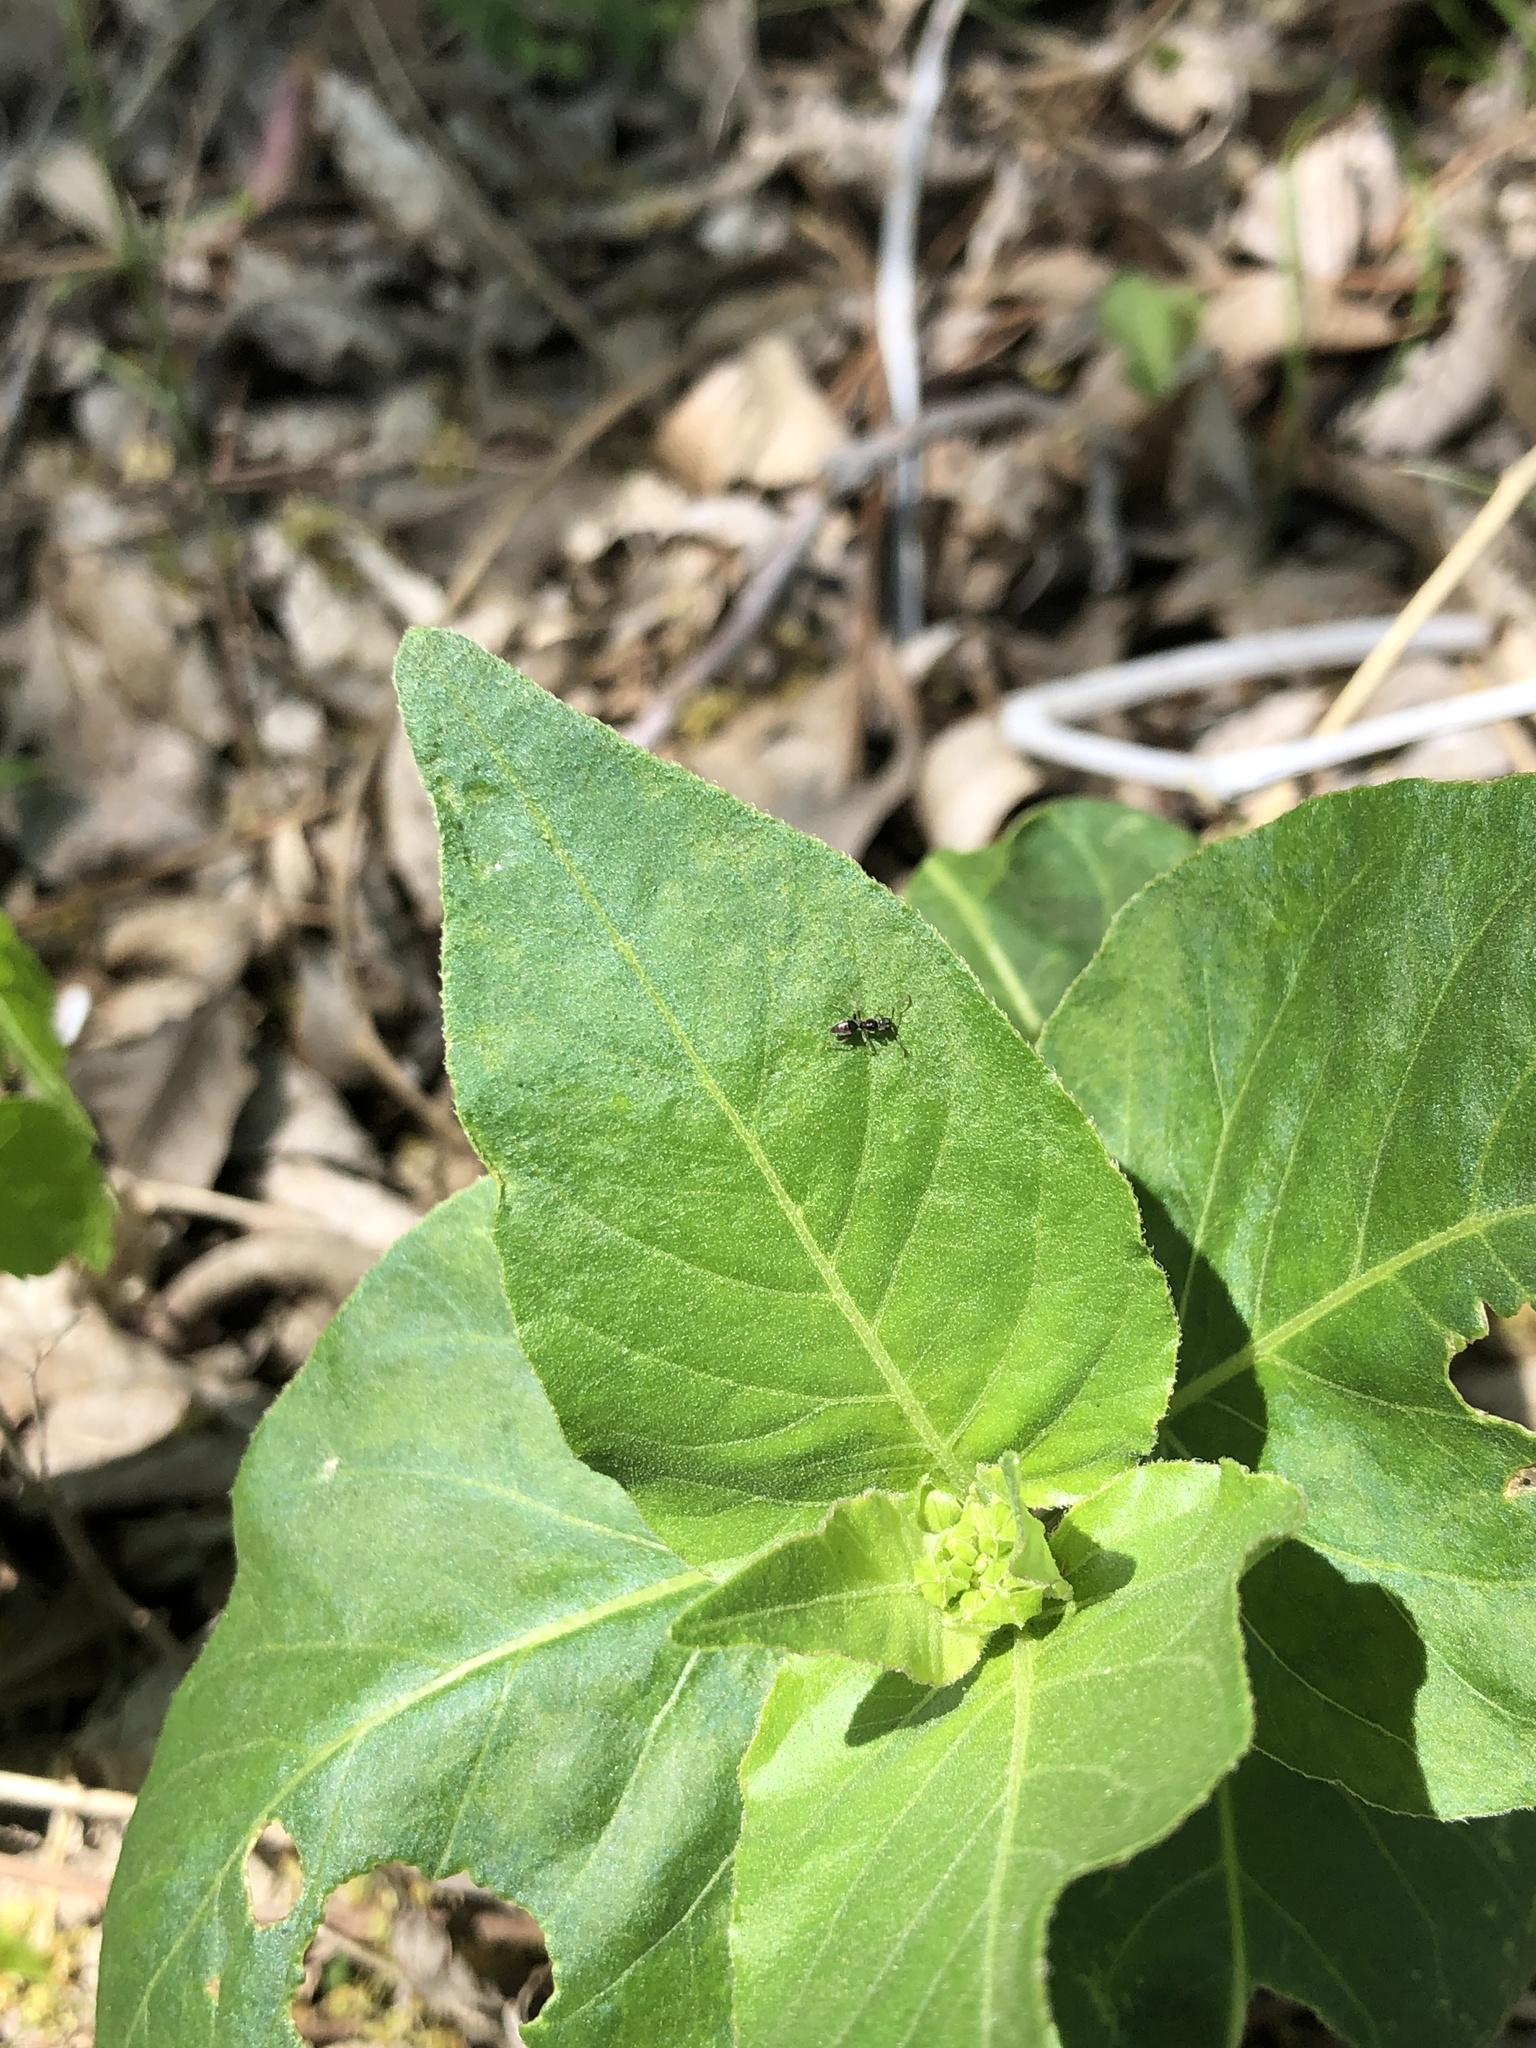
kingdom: Animalia
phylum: Arthropoda
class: Insecta
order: Hymenoptera
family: Formicidae
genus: Tapinoma
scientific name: Tapinoma sessile
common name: Odorous house ant
